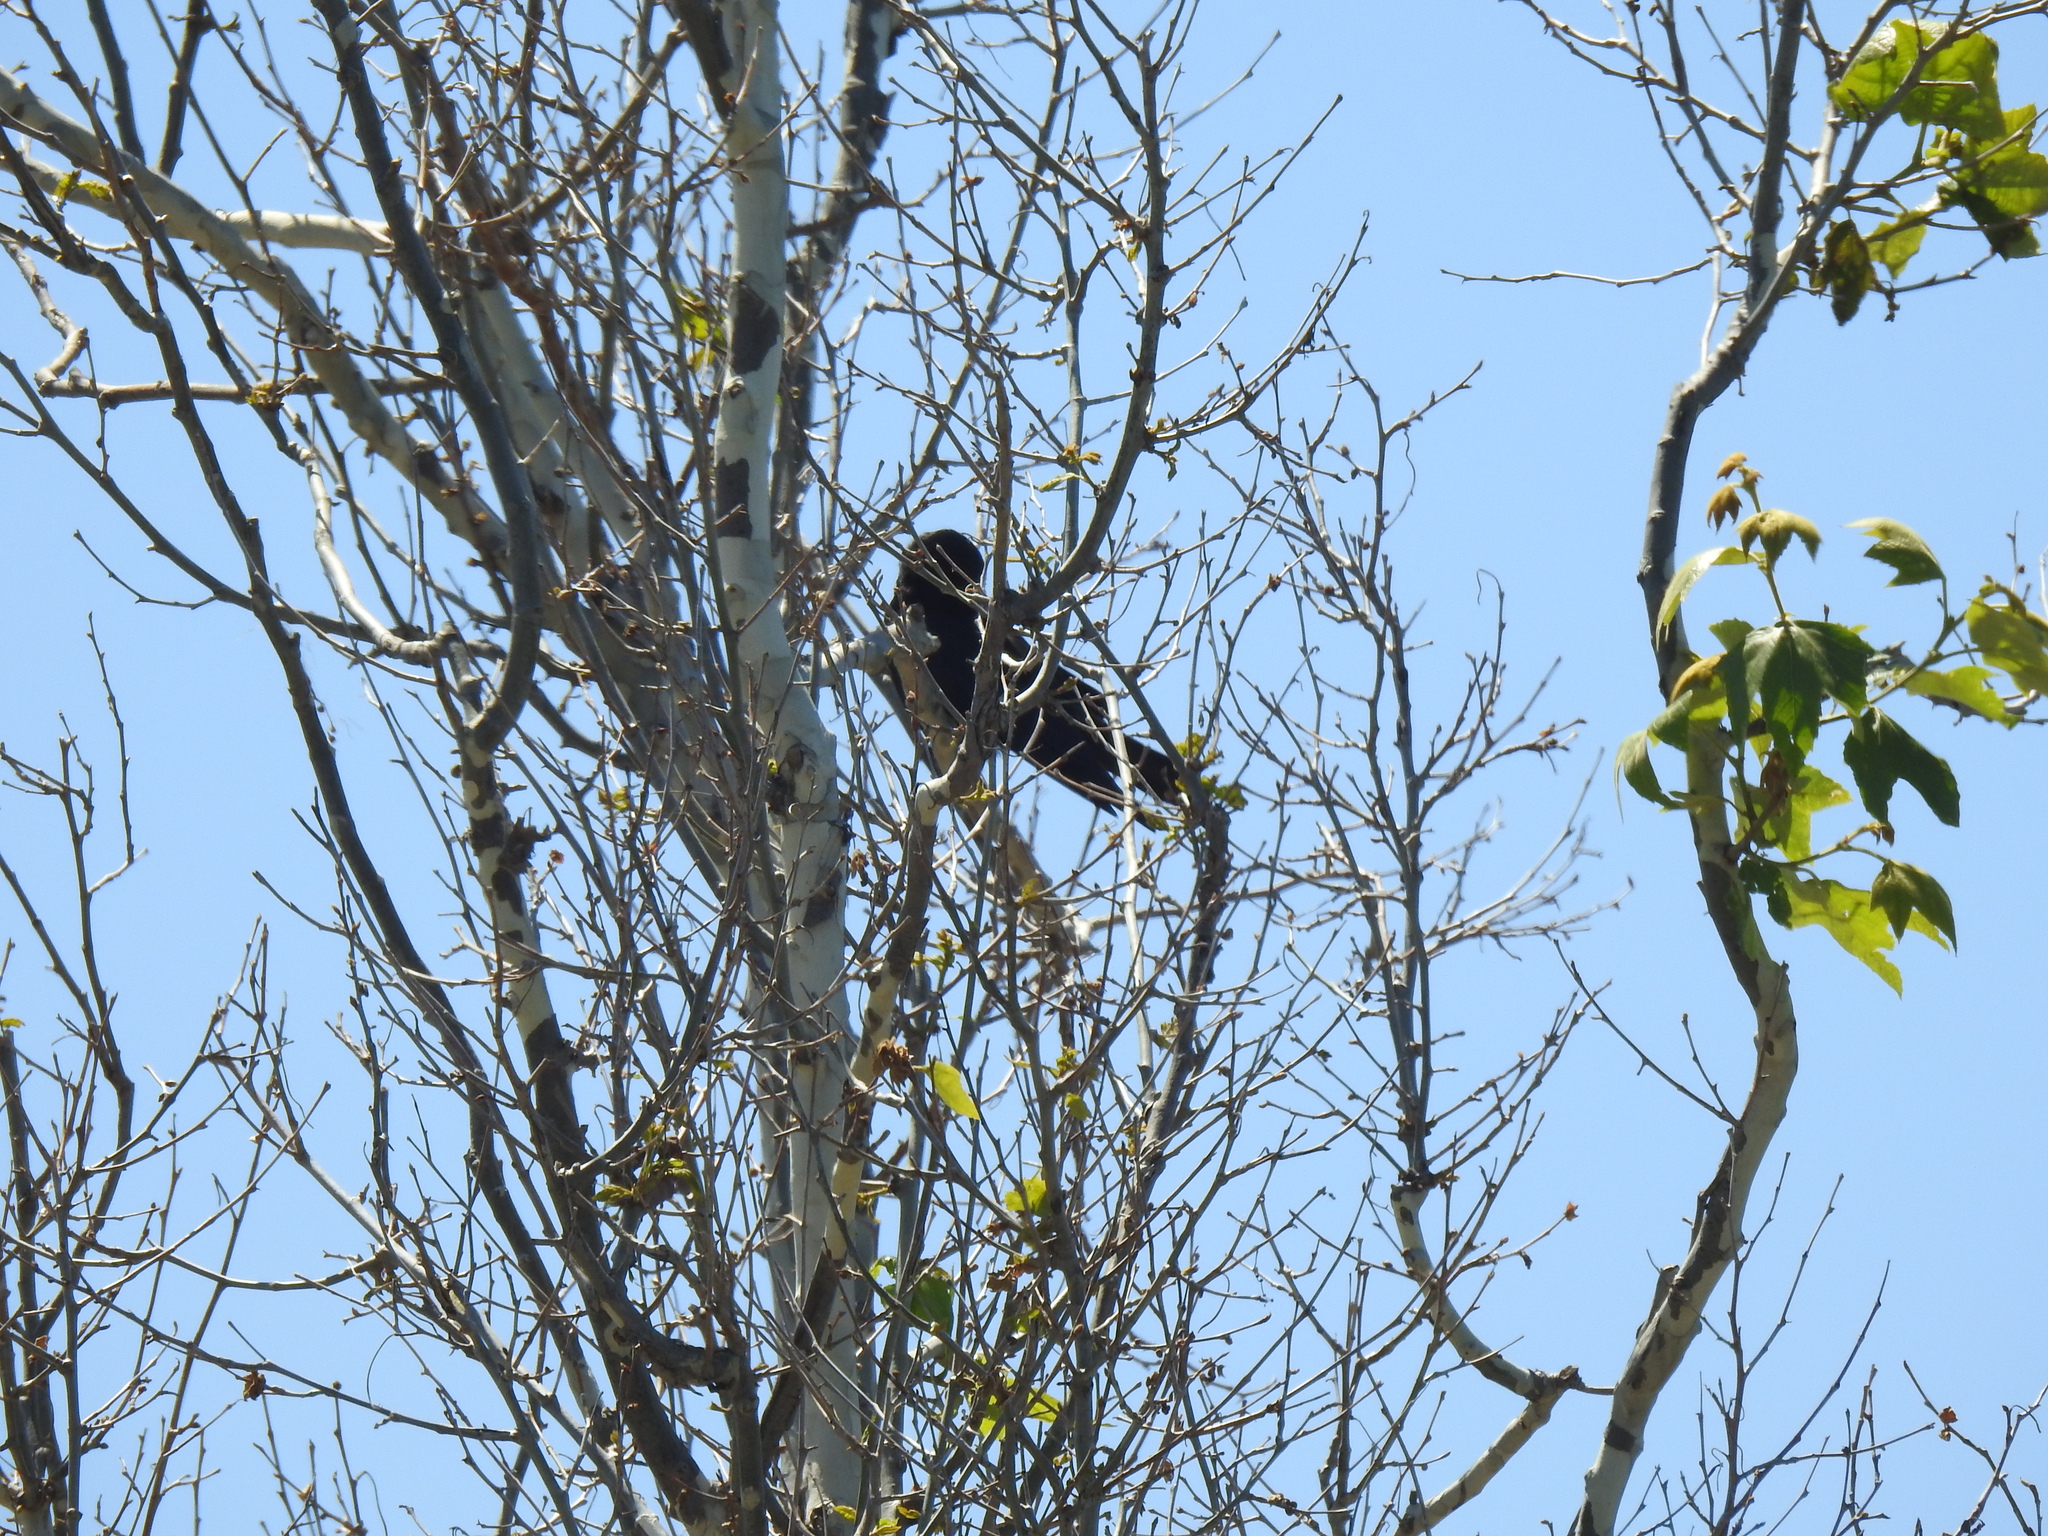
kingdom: Animalia
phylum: Chordata
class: Aves
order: Passeriformes
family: Corvidae
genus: Corvus
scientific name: Corvus brachyrhynchos
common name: American crow
